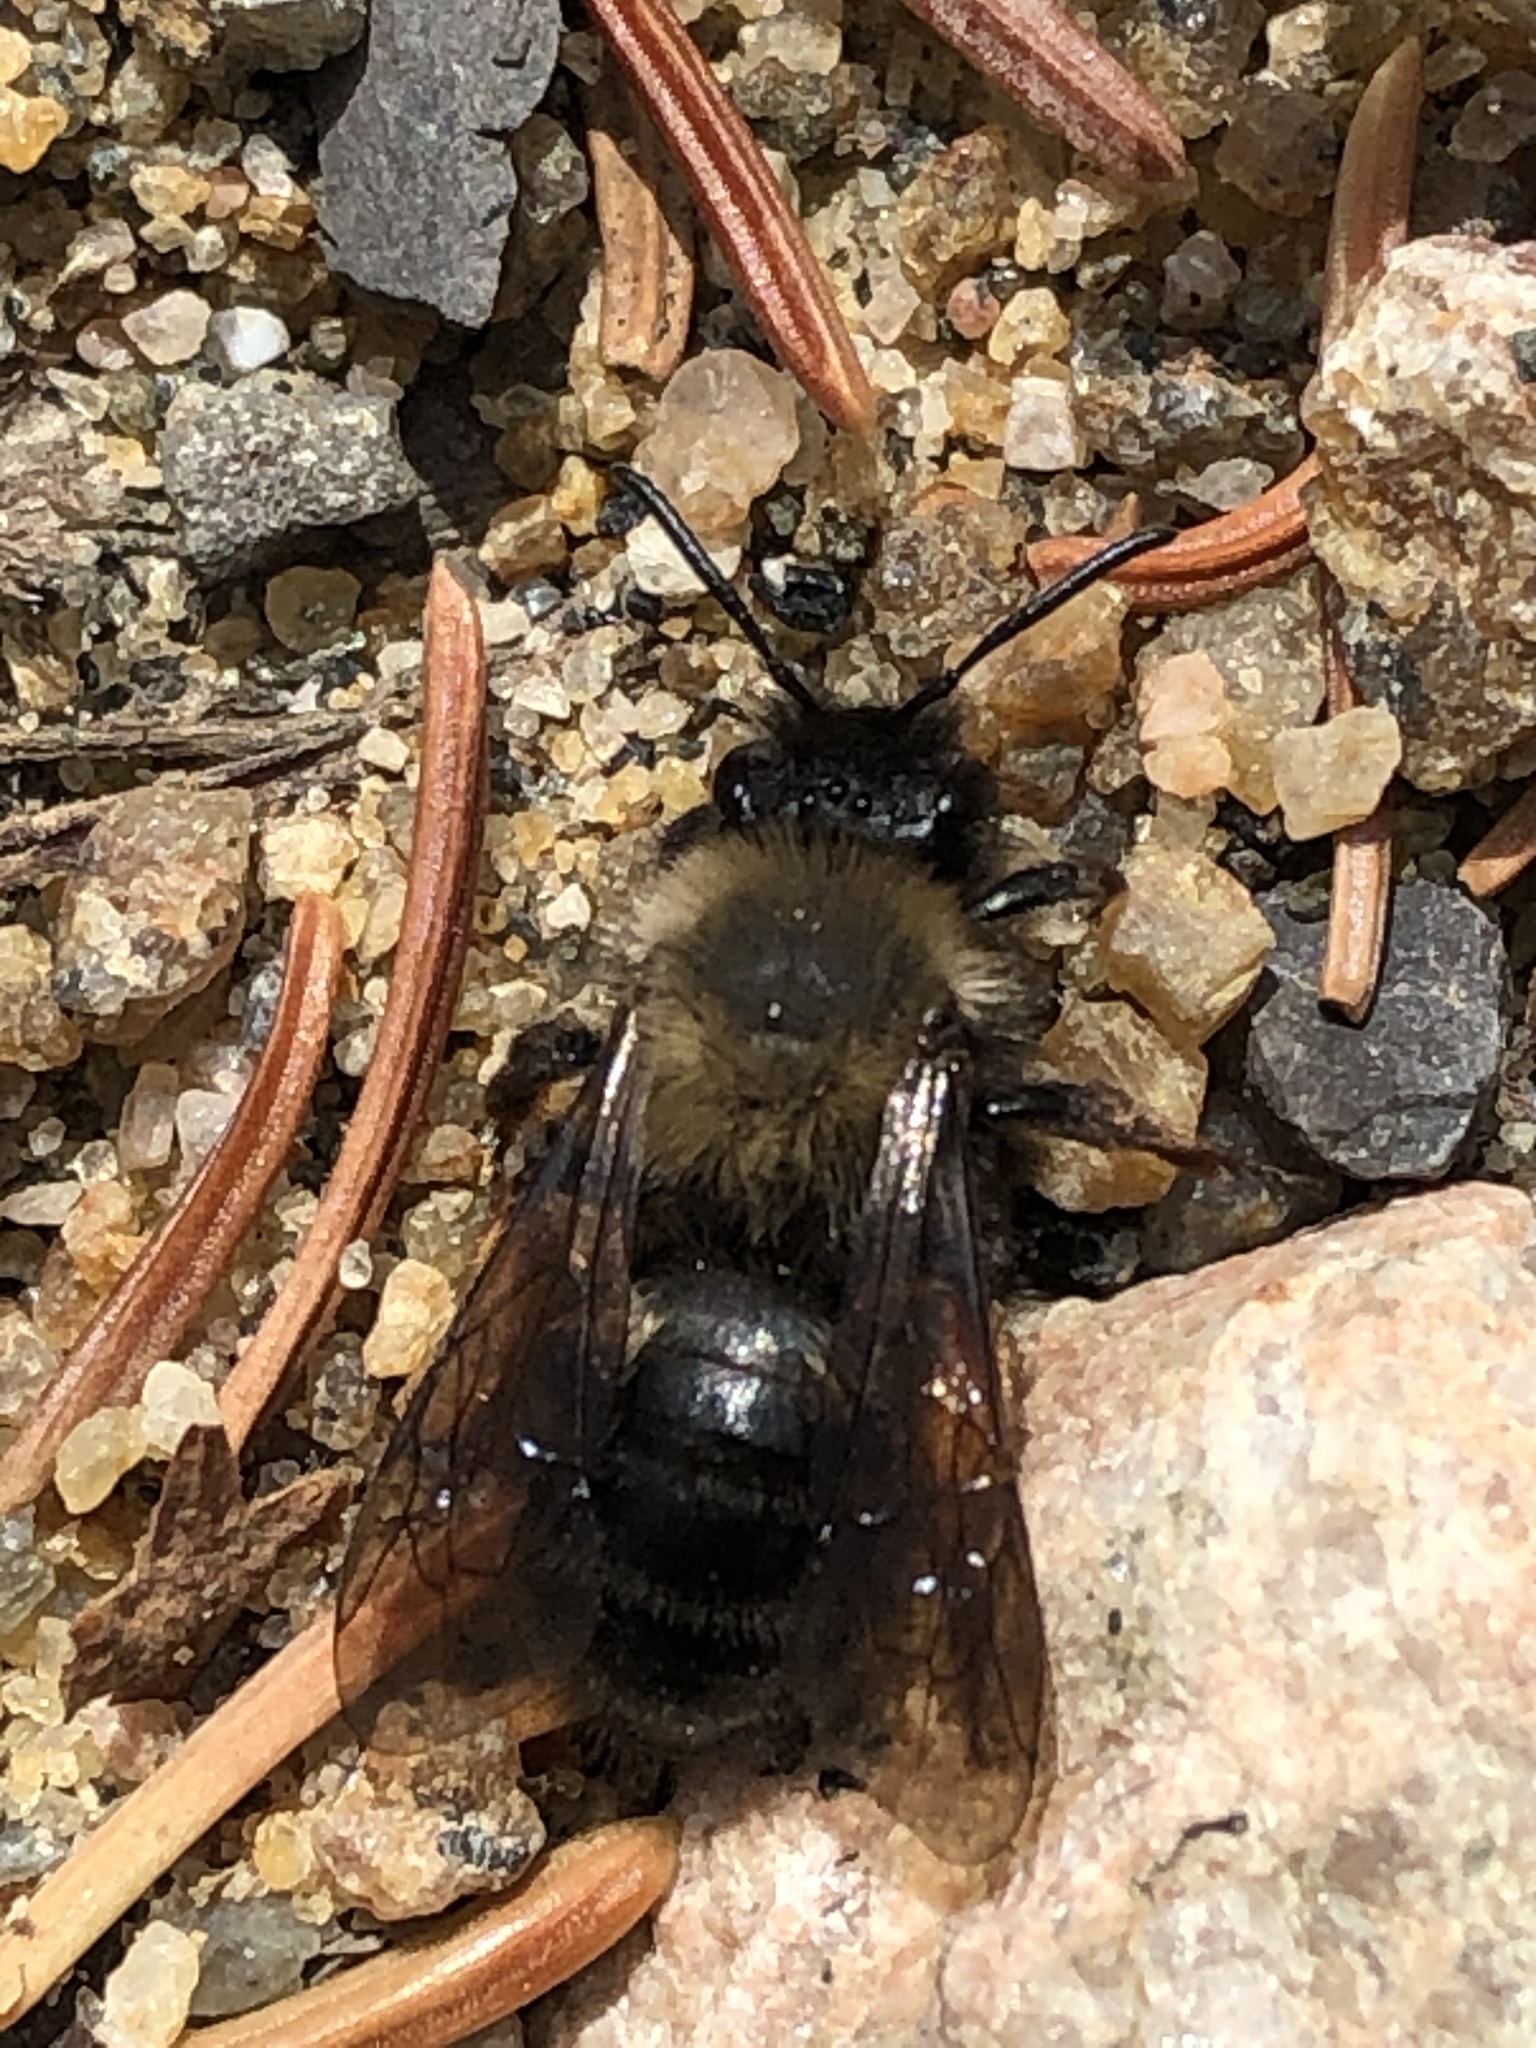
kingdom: Animalia
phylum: Arthropoda
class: Insecta
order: Hymenoptera
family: Andrenidae
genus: Andrena
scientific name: Andrena clarkella
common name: Clarke's mining bee
